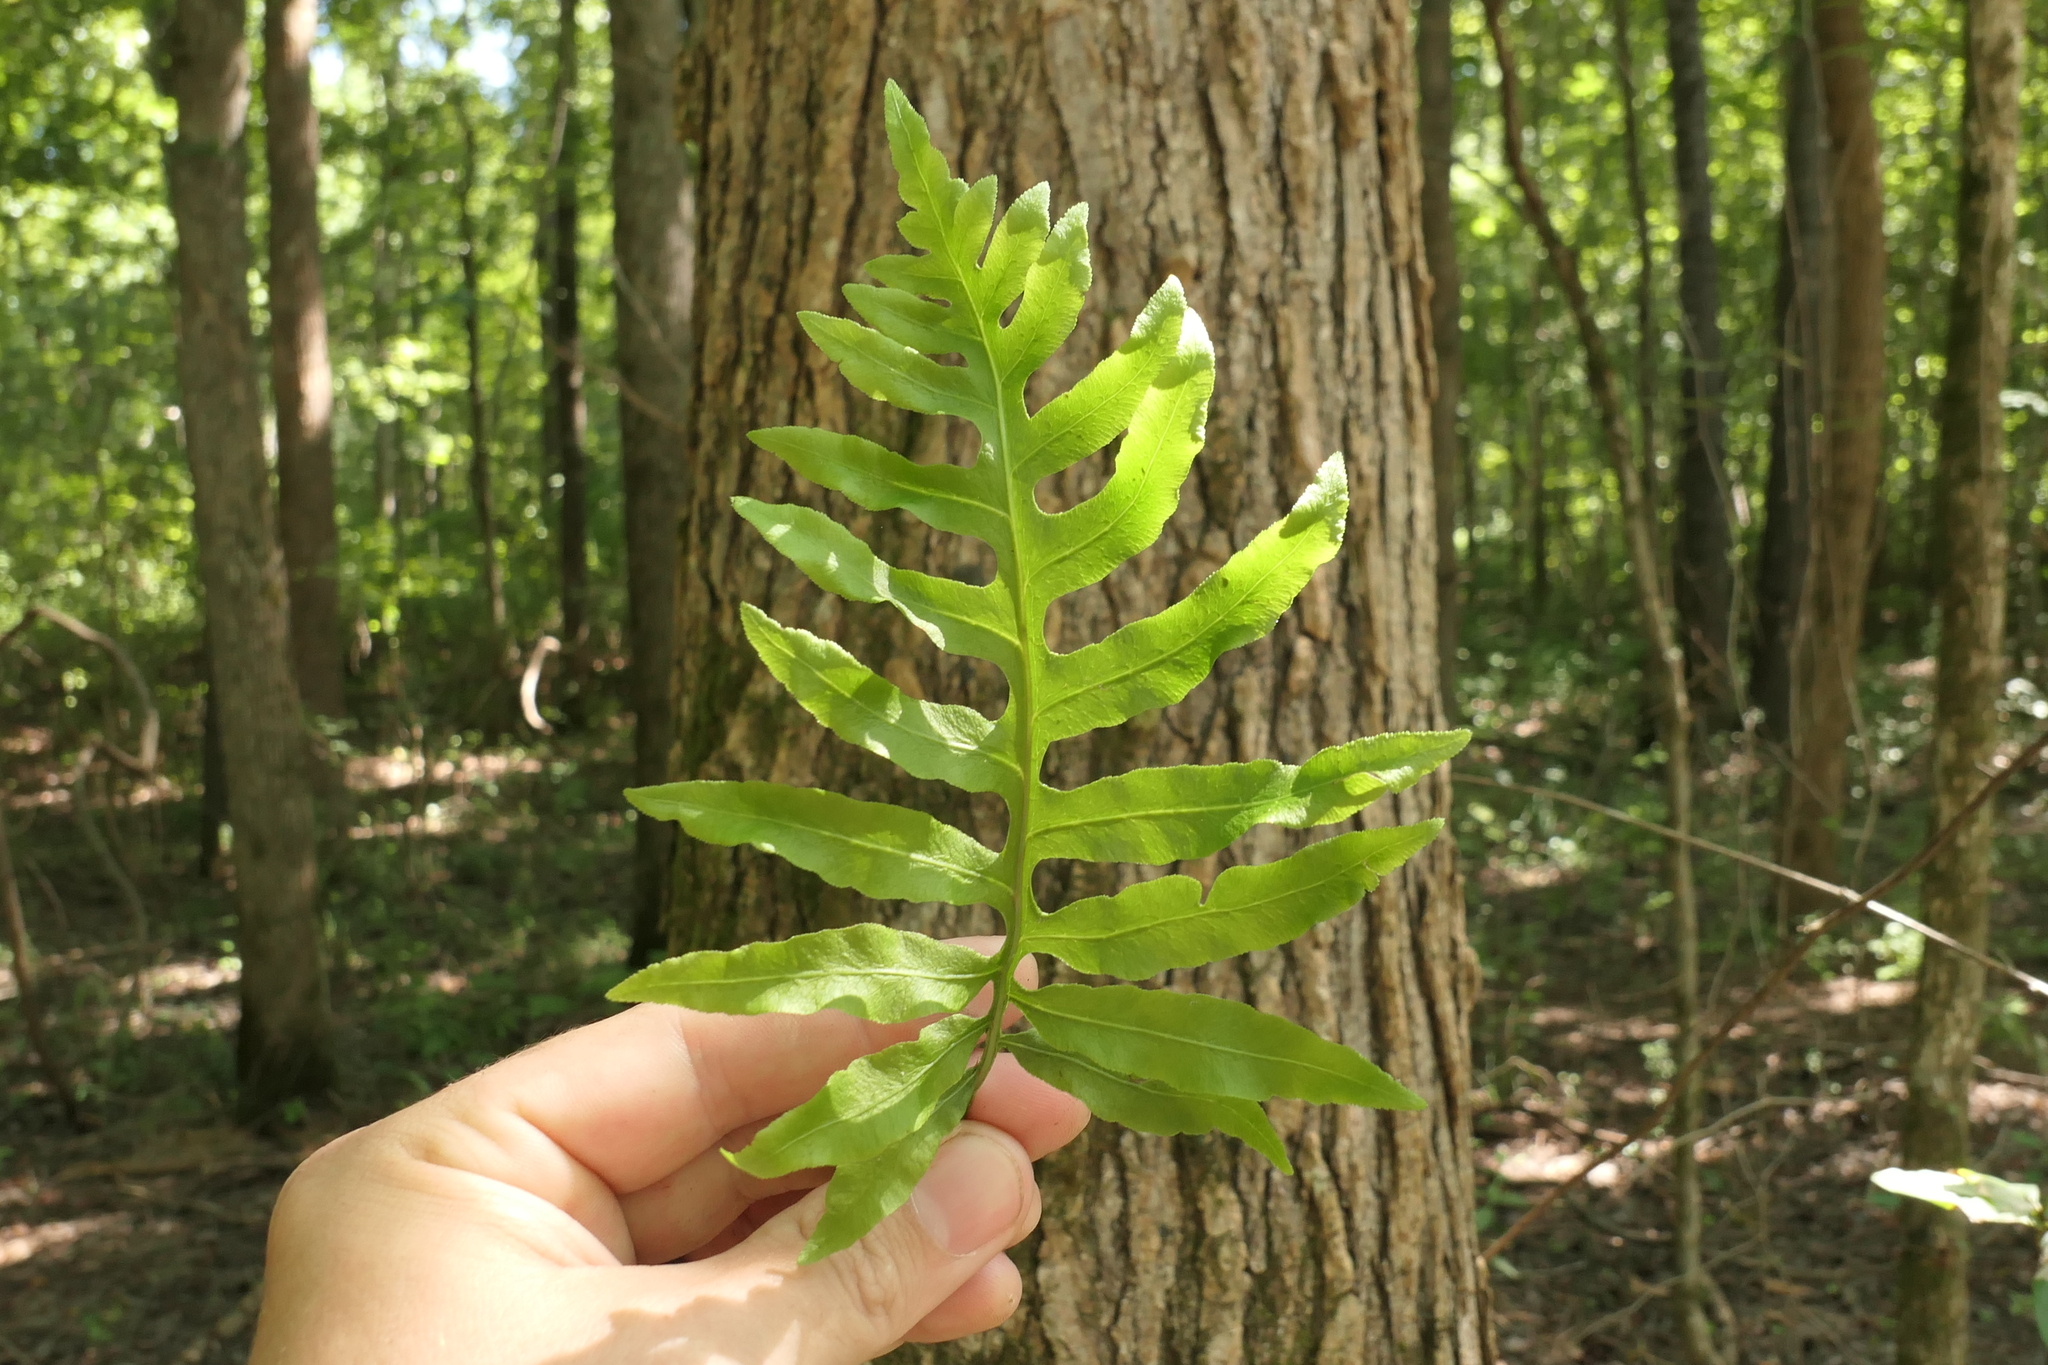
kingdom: Plantae
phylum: Tracheophyta
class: Polypodiopsida
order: Polypodiales
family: Blechnaceae
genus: Lorinseria
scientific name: Lorinseria areolata
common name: Dwarf chain fern
